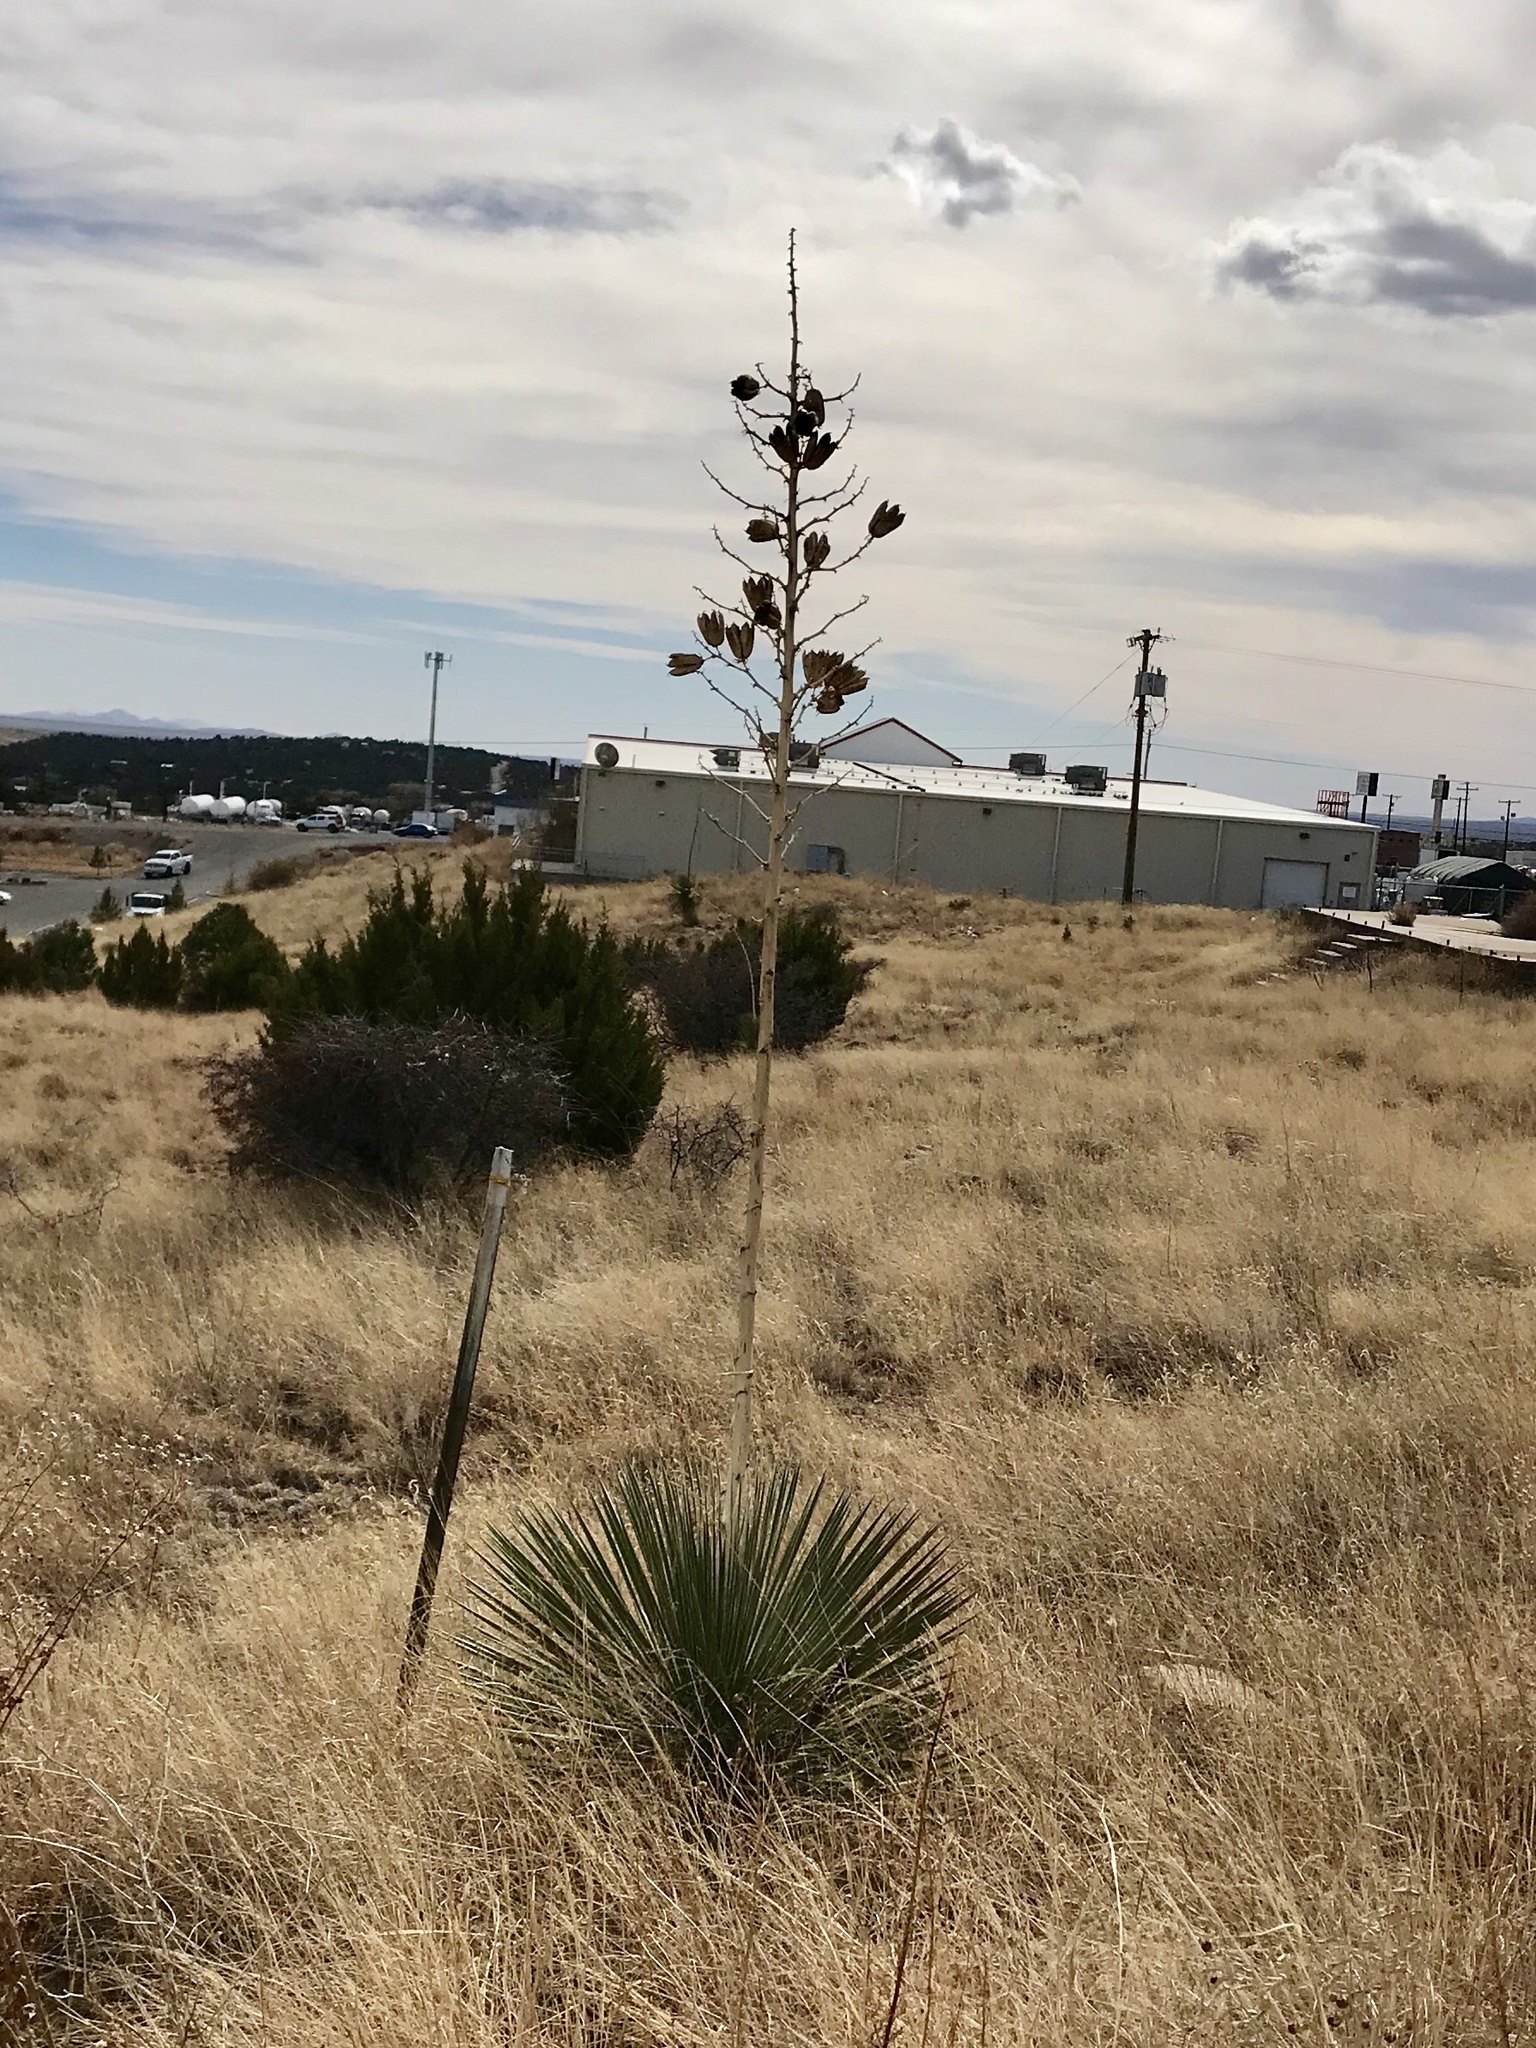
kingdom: Plantae
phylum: Tracheophyta
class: Liliopsida
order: Asparagales
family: Asparagaceae
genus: Yucca
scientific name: Yucca elata
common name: Palmella
